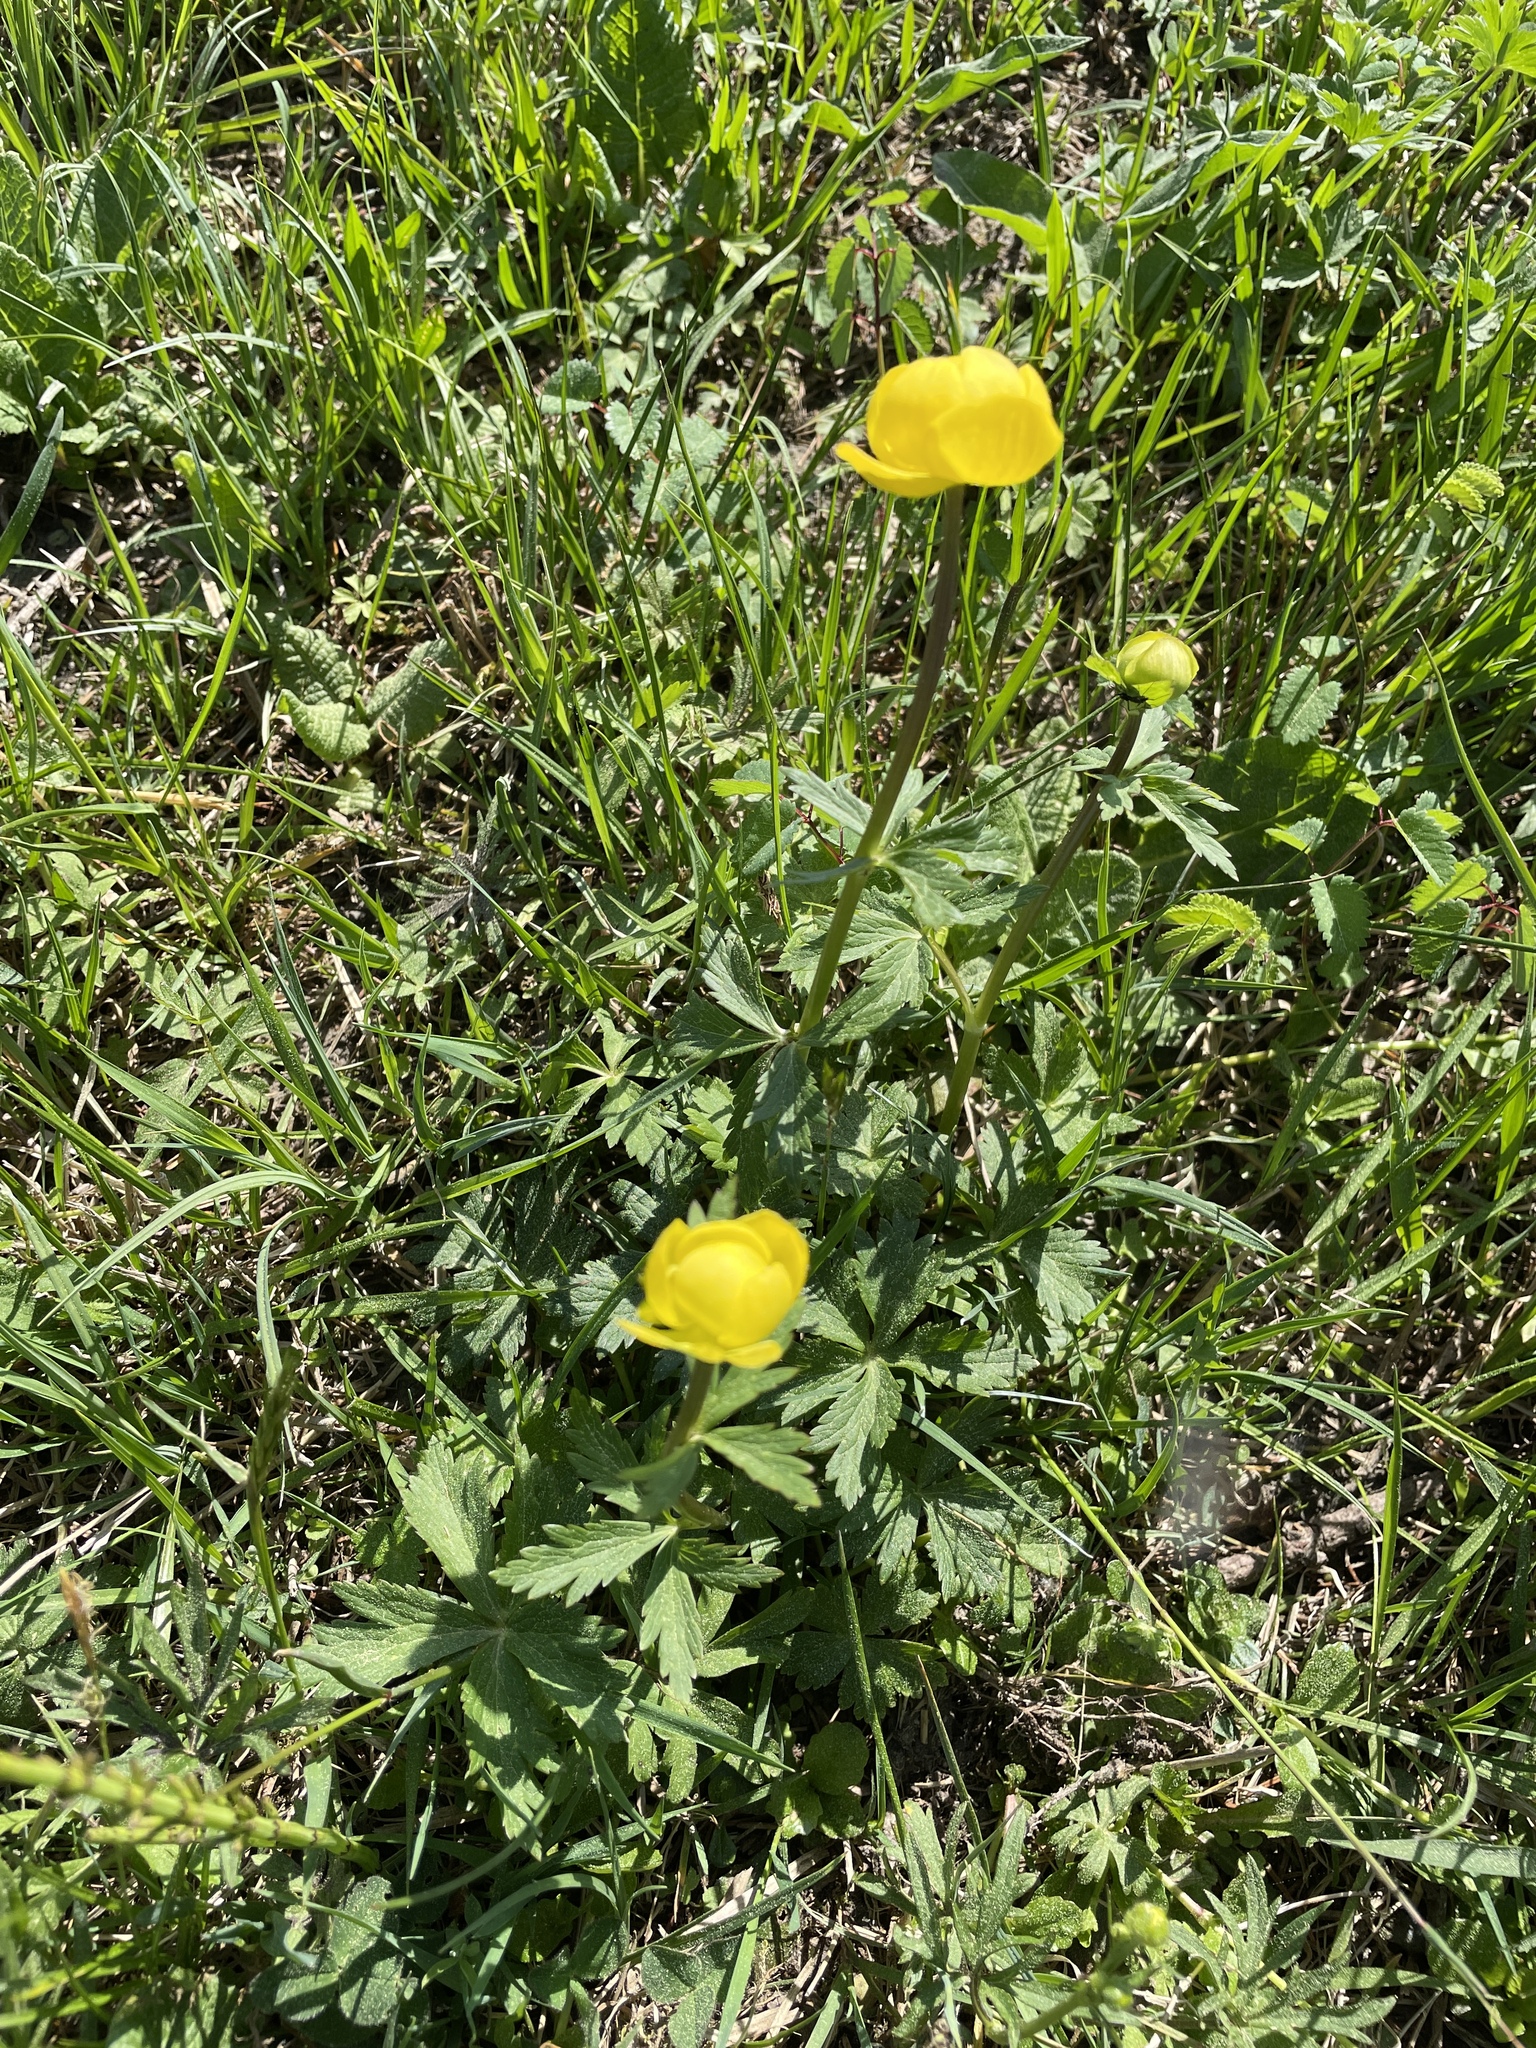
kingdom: Plantae
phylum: Tracheophyta
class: Magnoliopsida
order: Ranunculales
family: Ranunculaceae
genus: Trollius
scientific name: Trollius europaeus
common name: European globeflower
